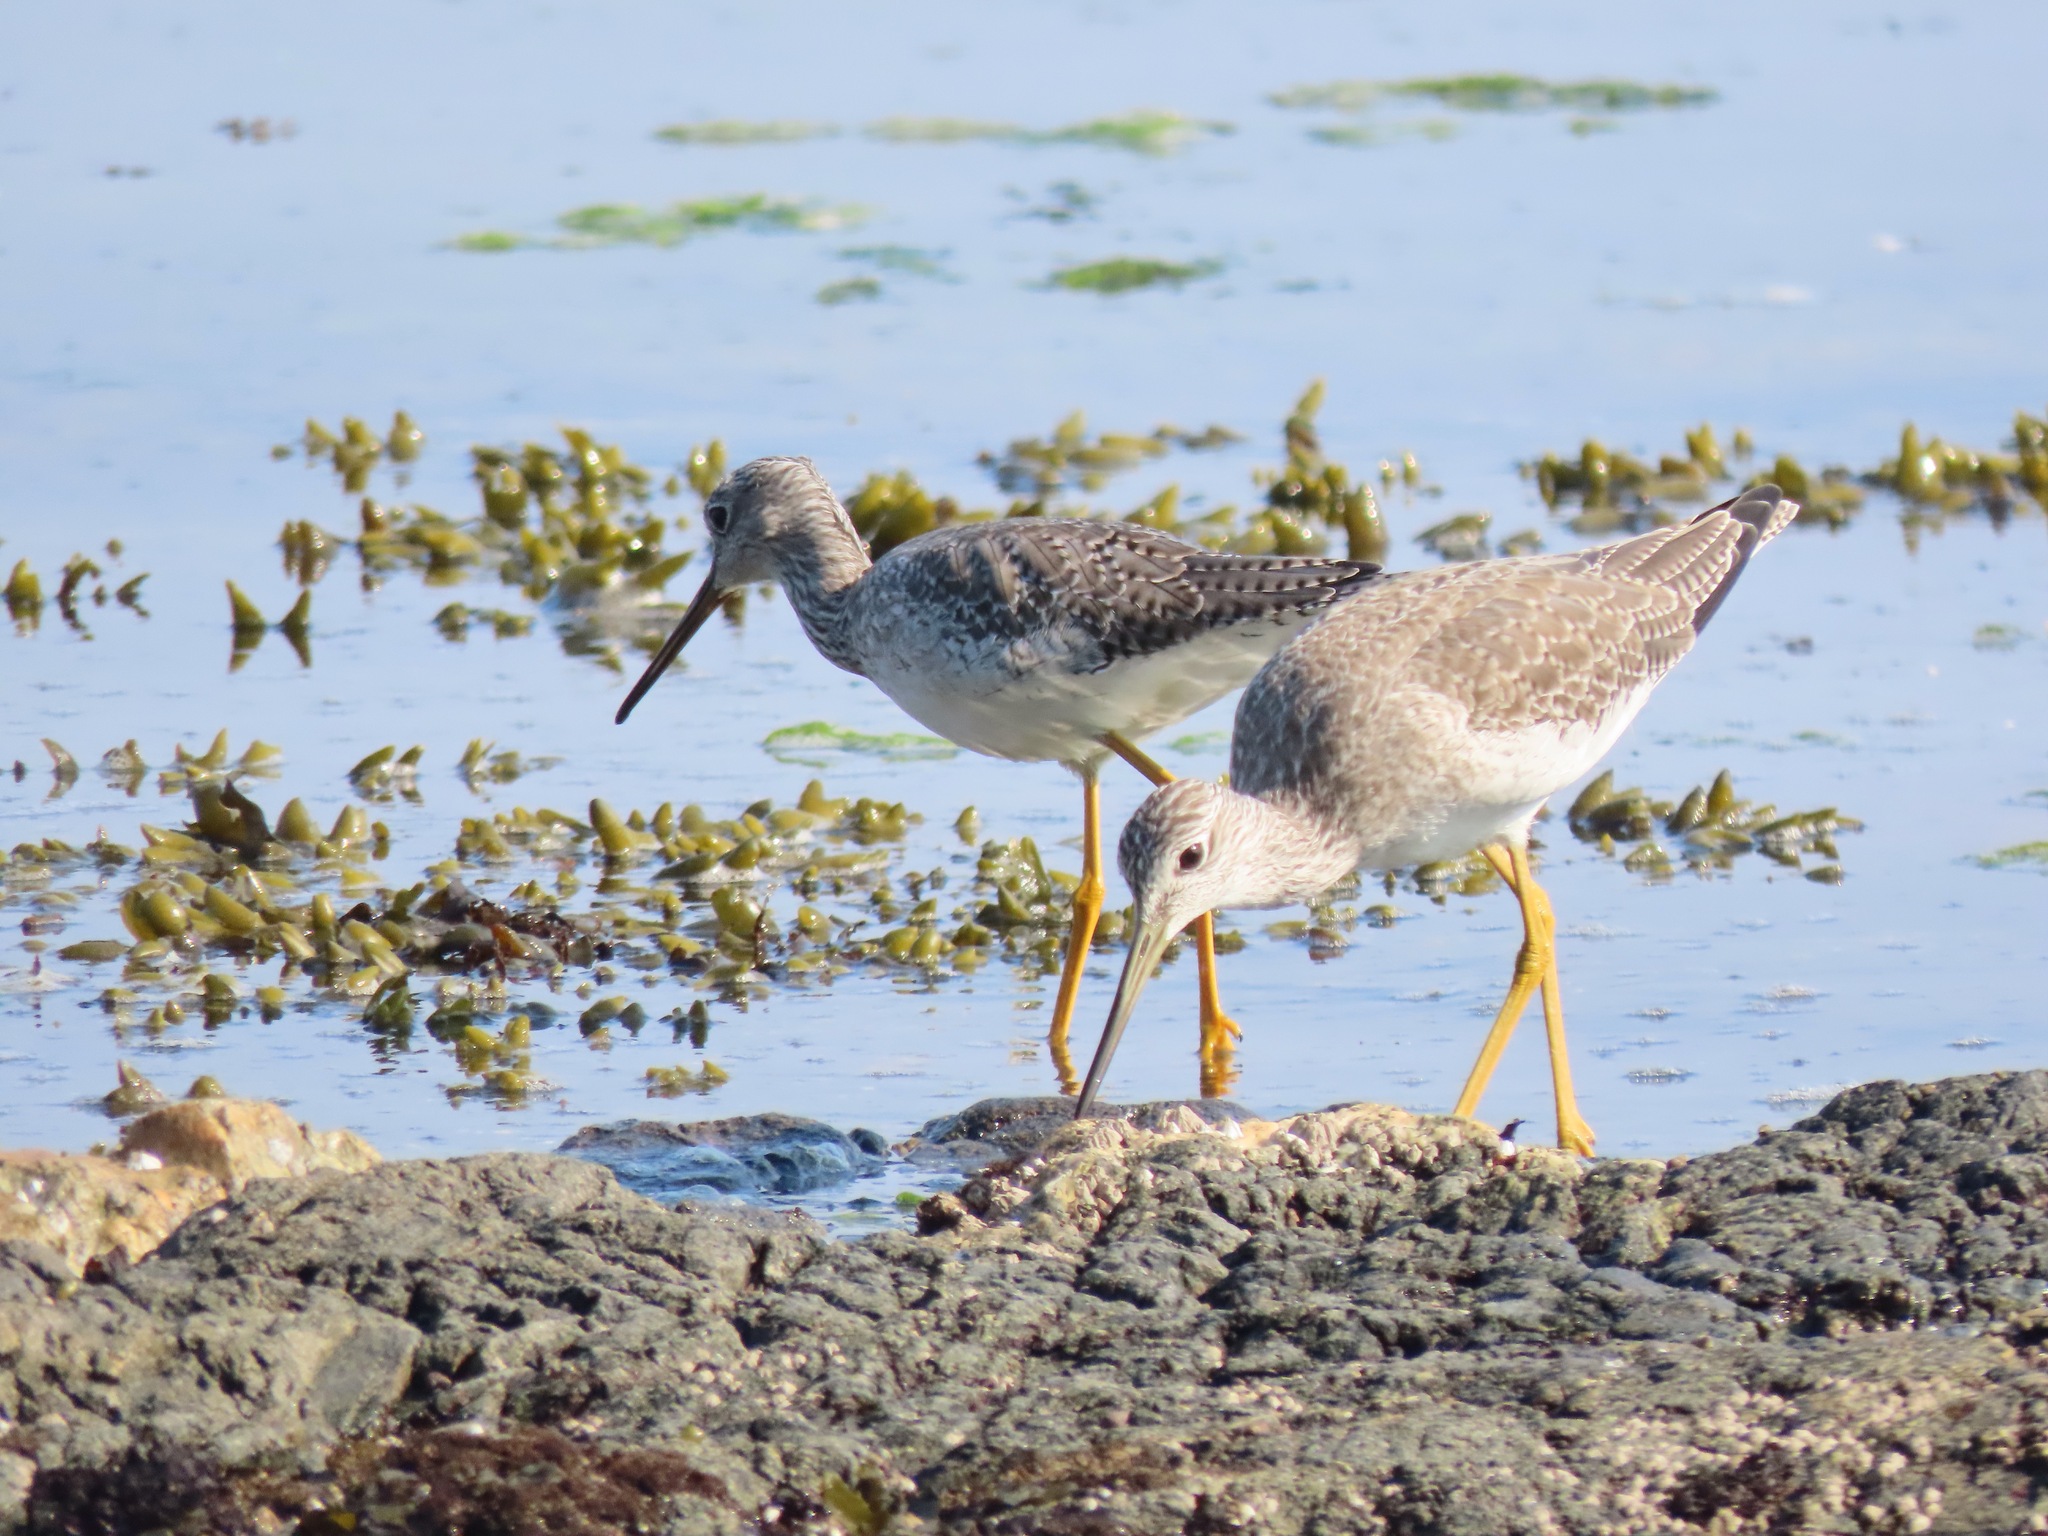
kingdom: Animalia
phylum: Chordata
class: Aves
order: Charadriiformes
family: Scolopacidae
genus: Tringa
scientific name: Tringa melanoleuca
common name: Greater yellowlegs
